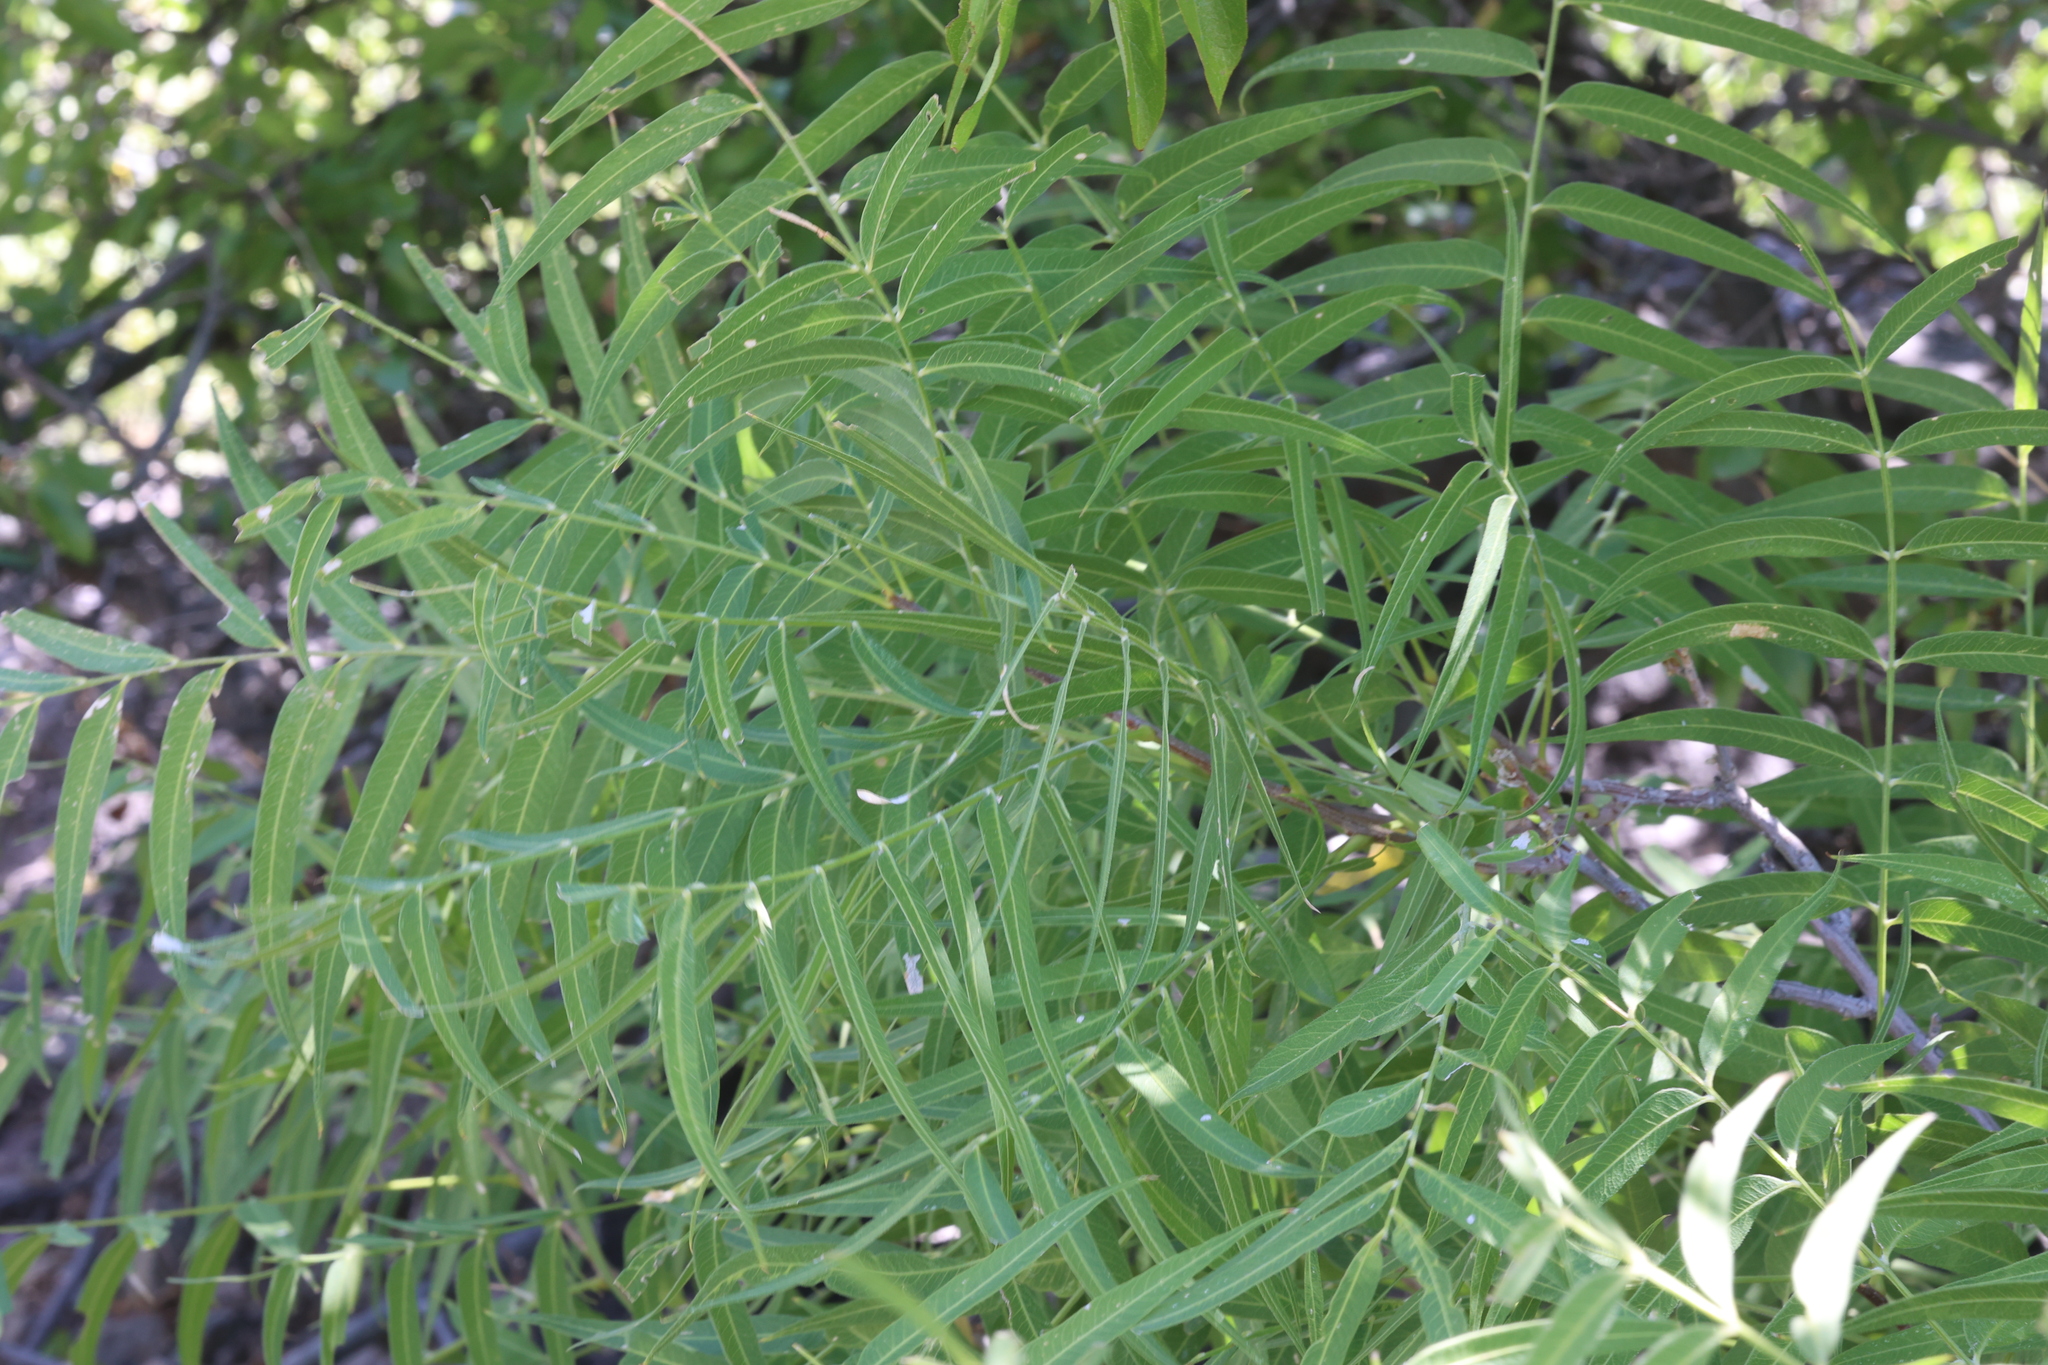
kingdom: Plantae
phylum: Tracheophyta
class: Magnoliopsida
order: Sapindales
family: Sapindaceae
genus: Sapindus
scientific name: Sapindus drummondii
